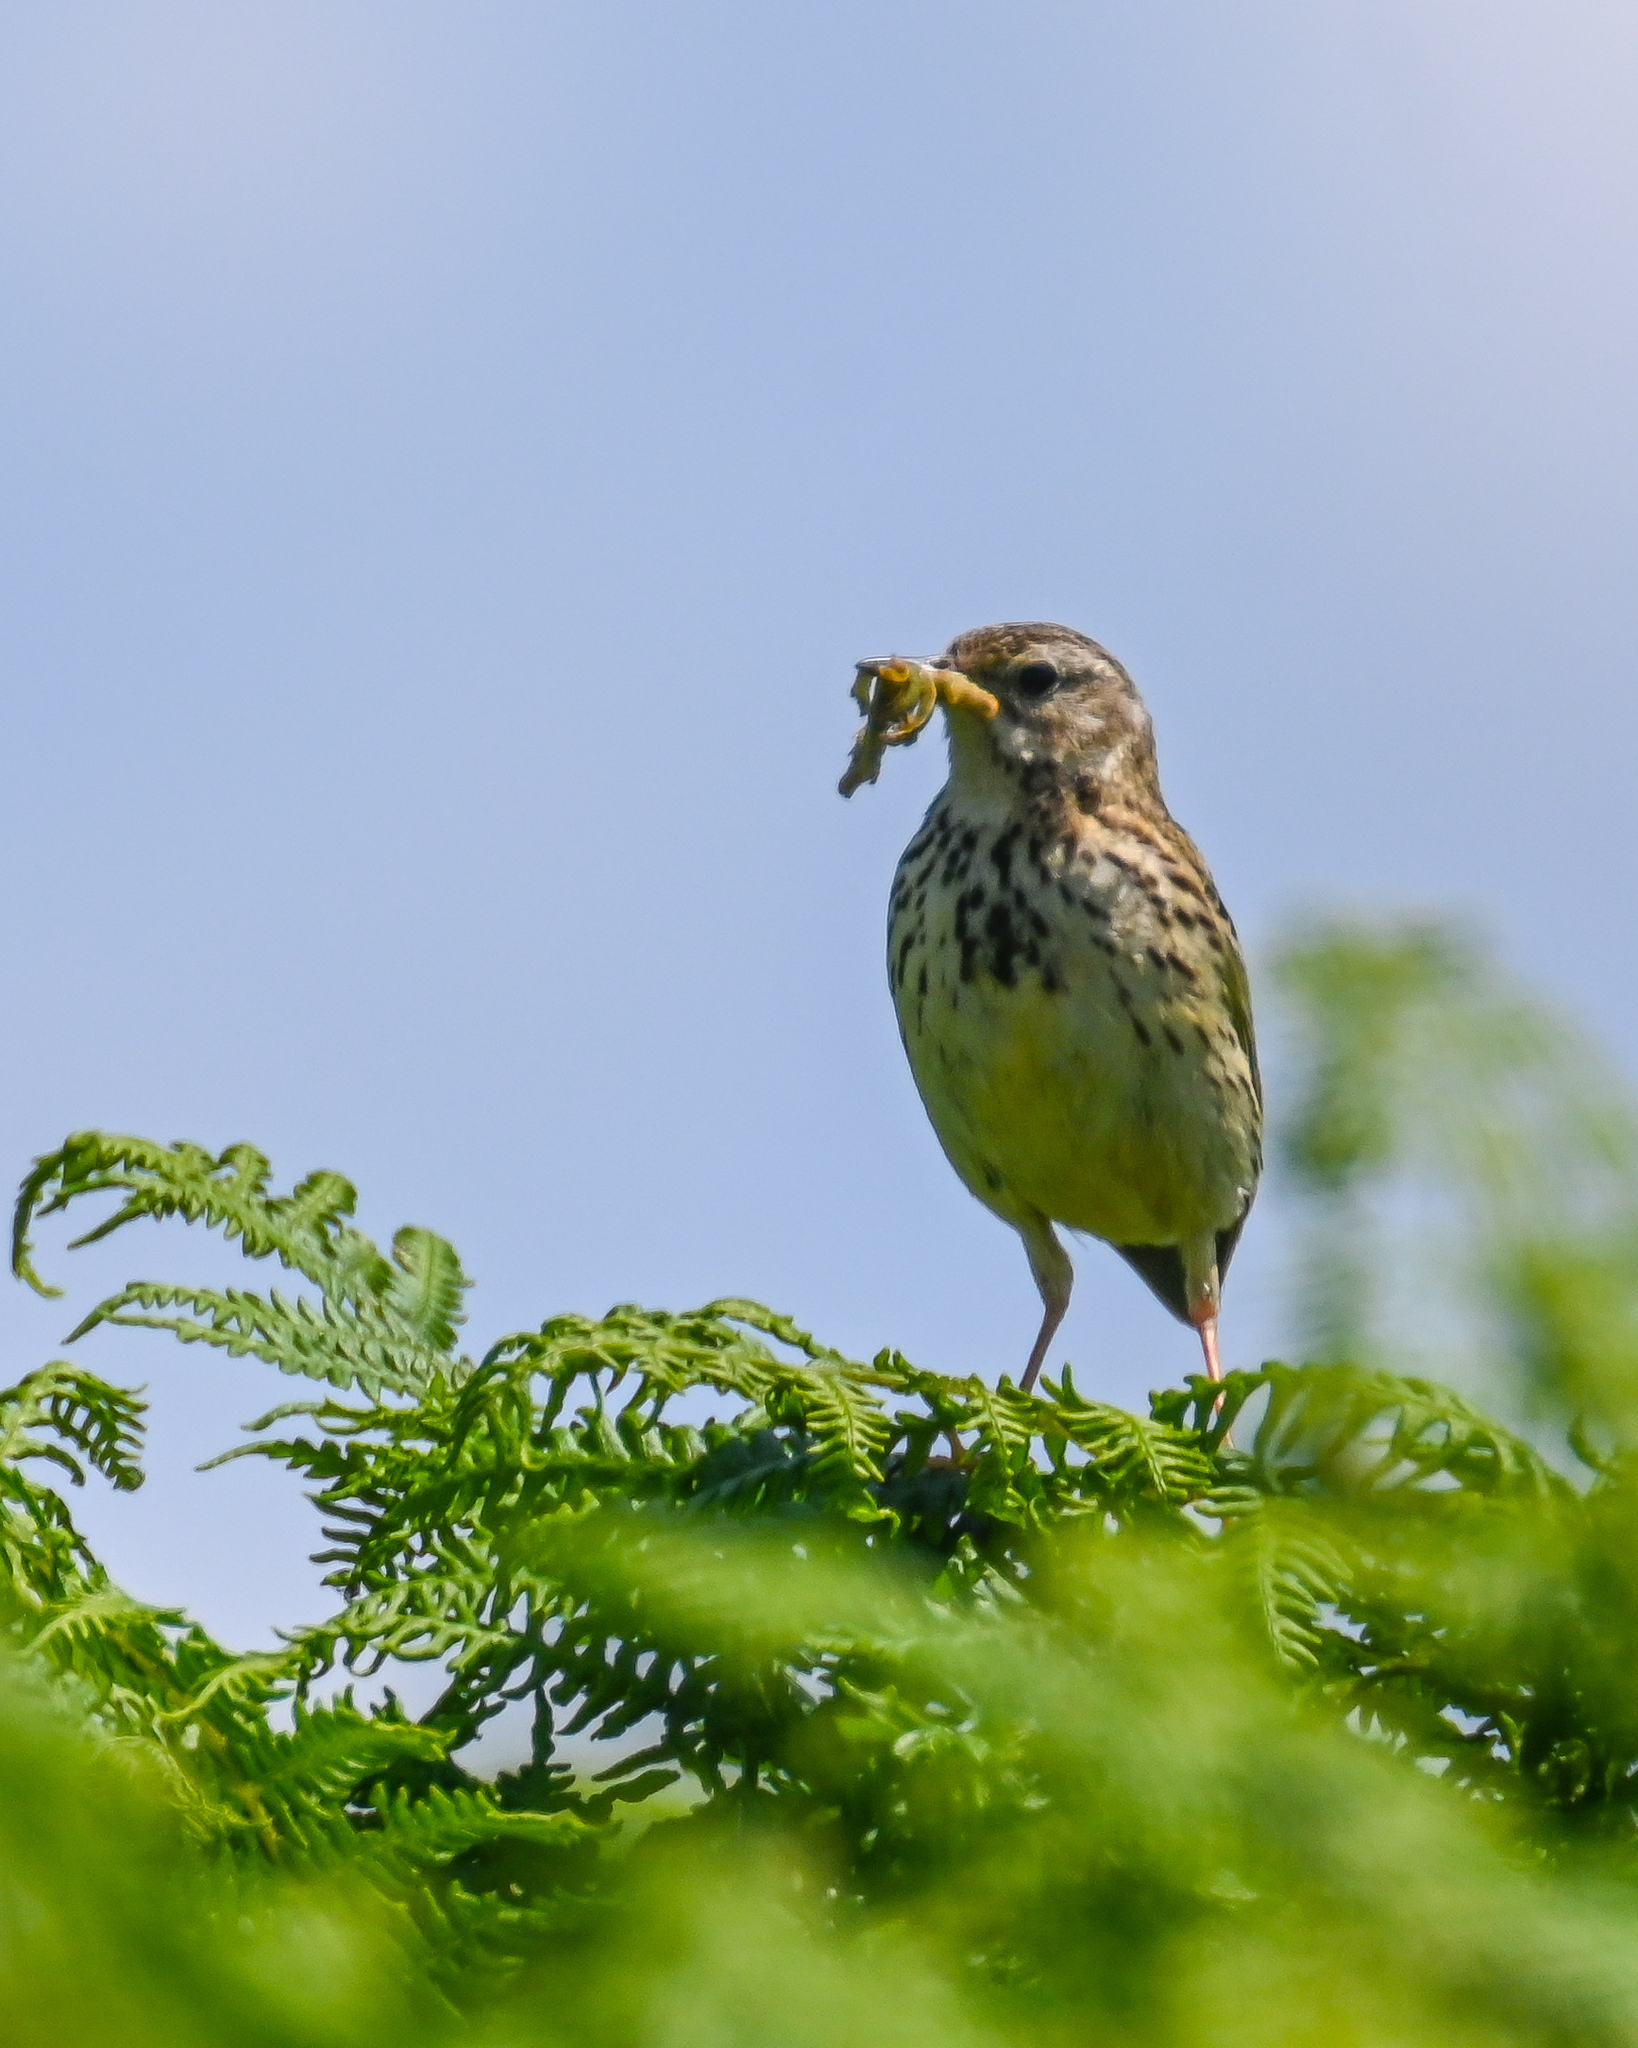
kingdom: Animalia
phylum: Chordata
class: Aves
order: Passeriformes
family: Motacillidae
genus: Anthus
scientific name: Anthus pratensis
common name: Meadow pipit
